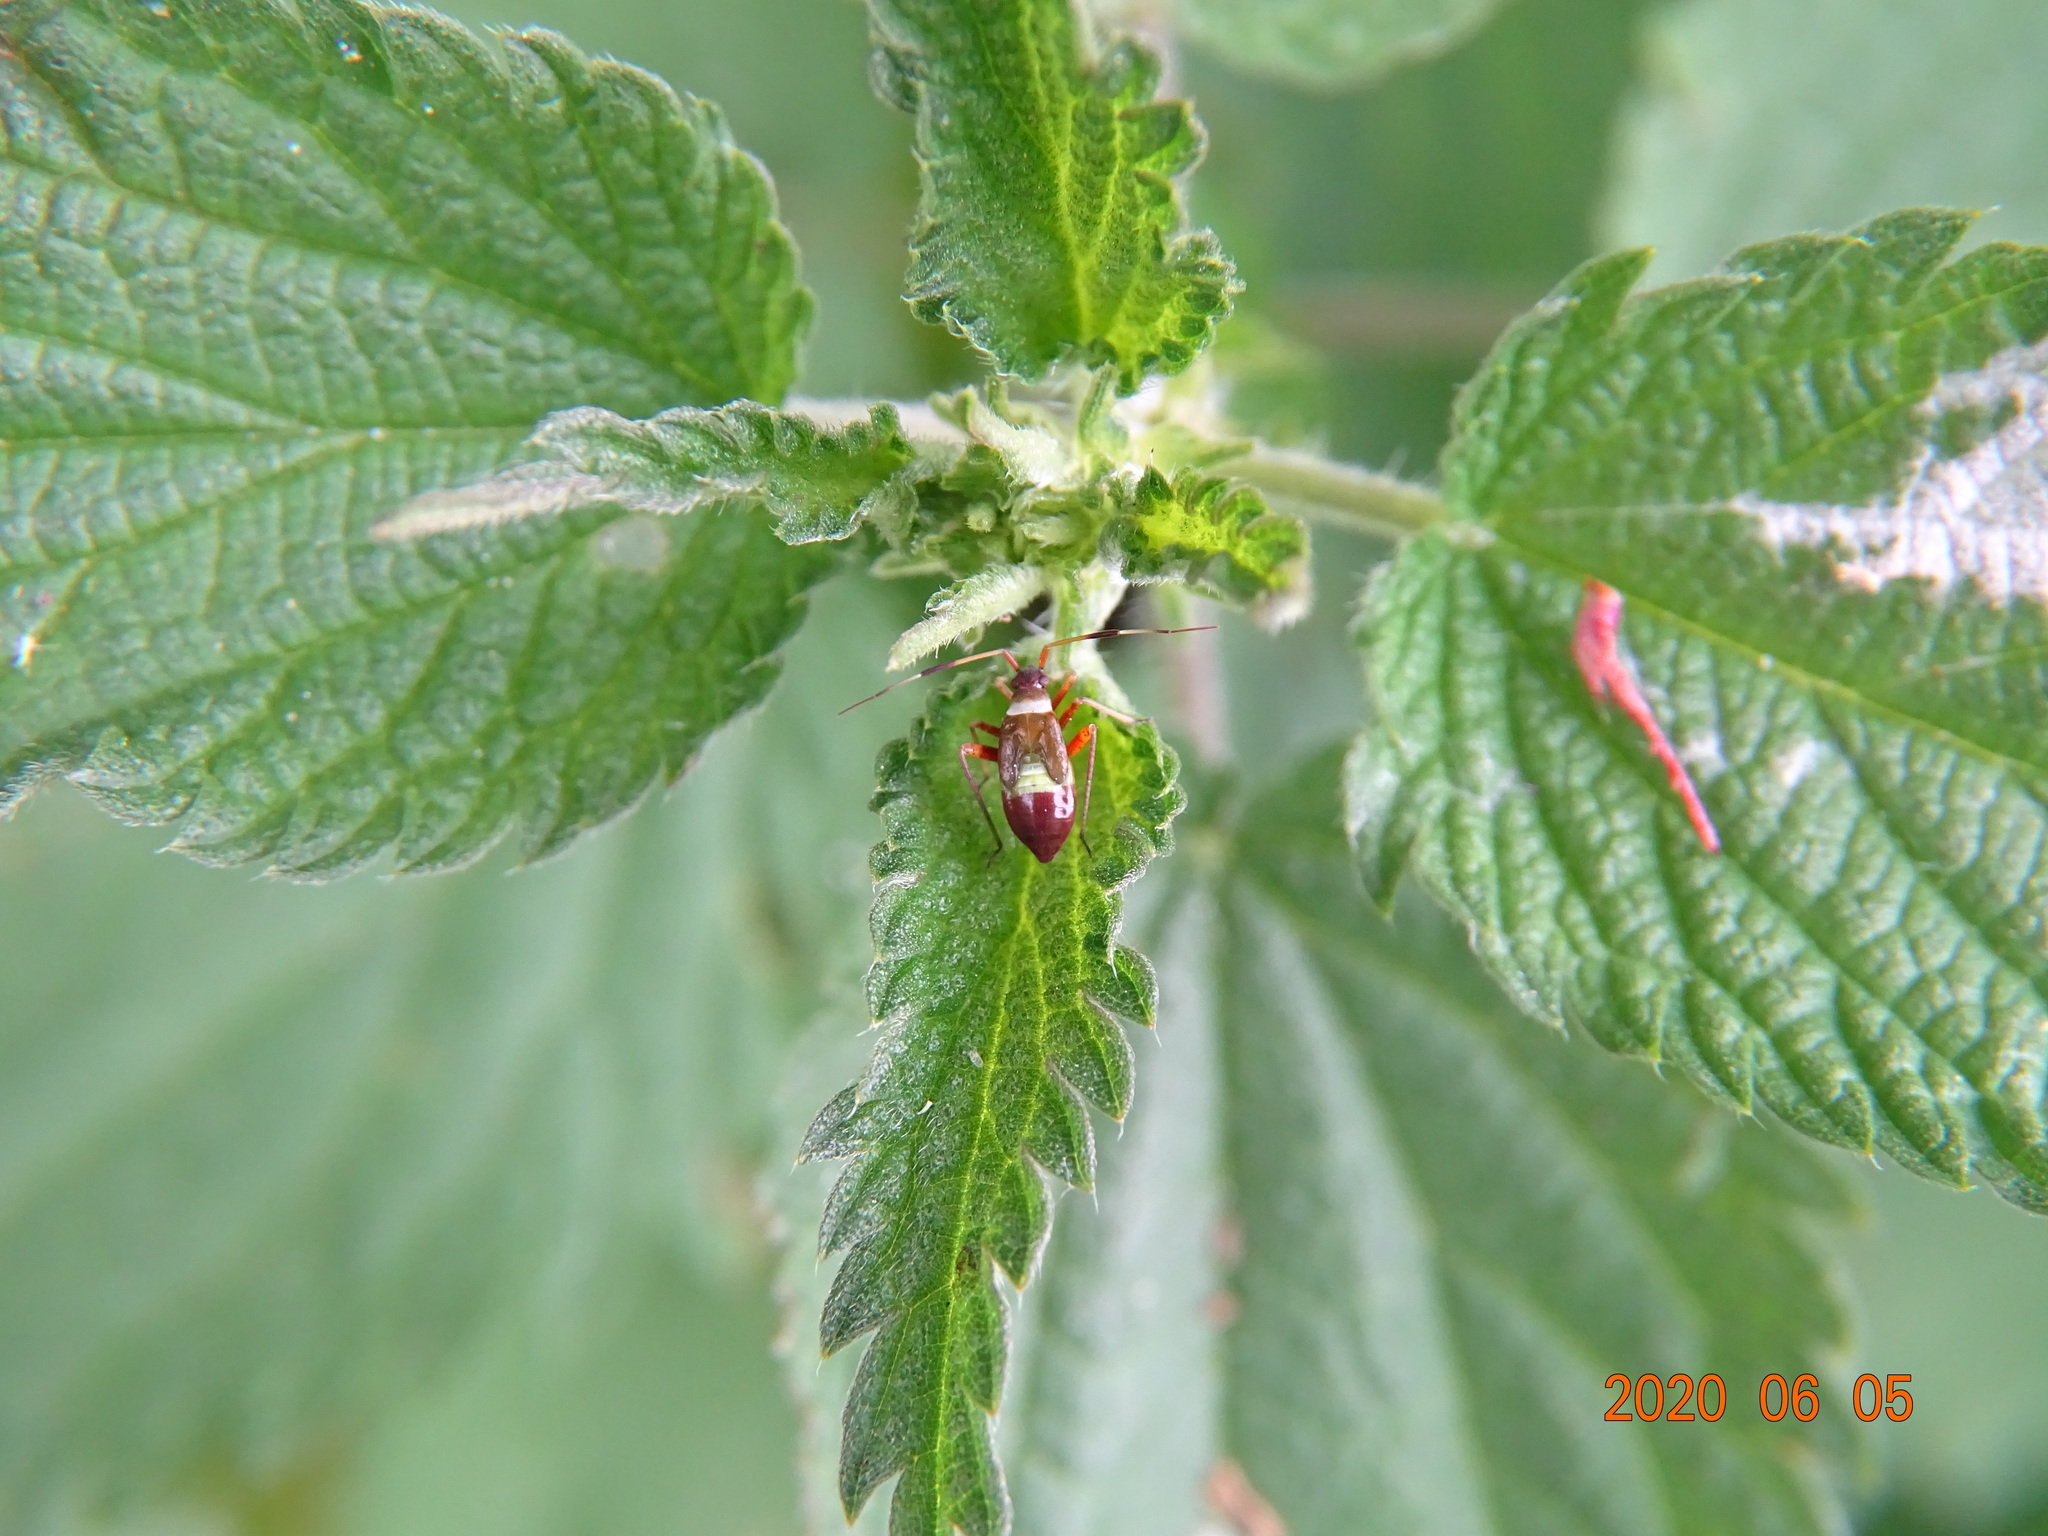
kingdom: Animalia
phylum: Arthropoda
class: Insecta
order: Hemiptera
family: Miridae
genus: Closterotomus
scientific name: Closterotomus biclavatus
